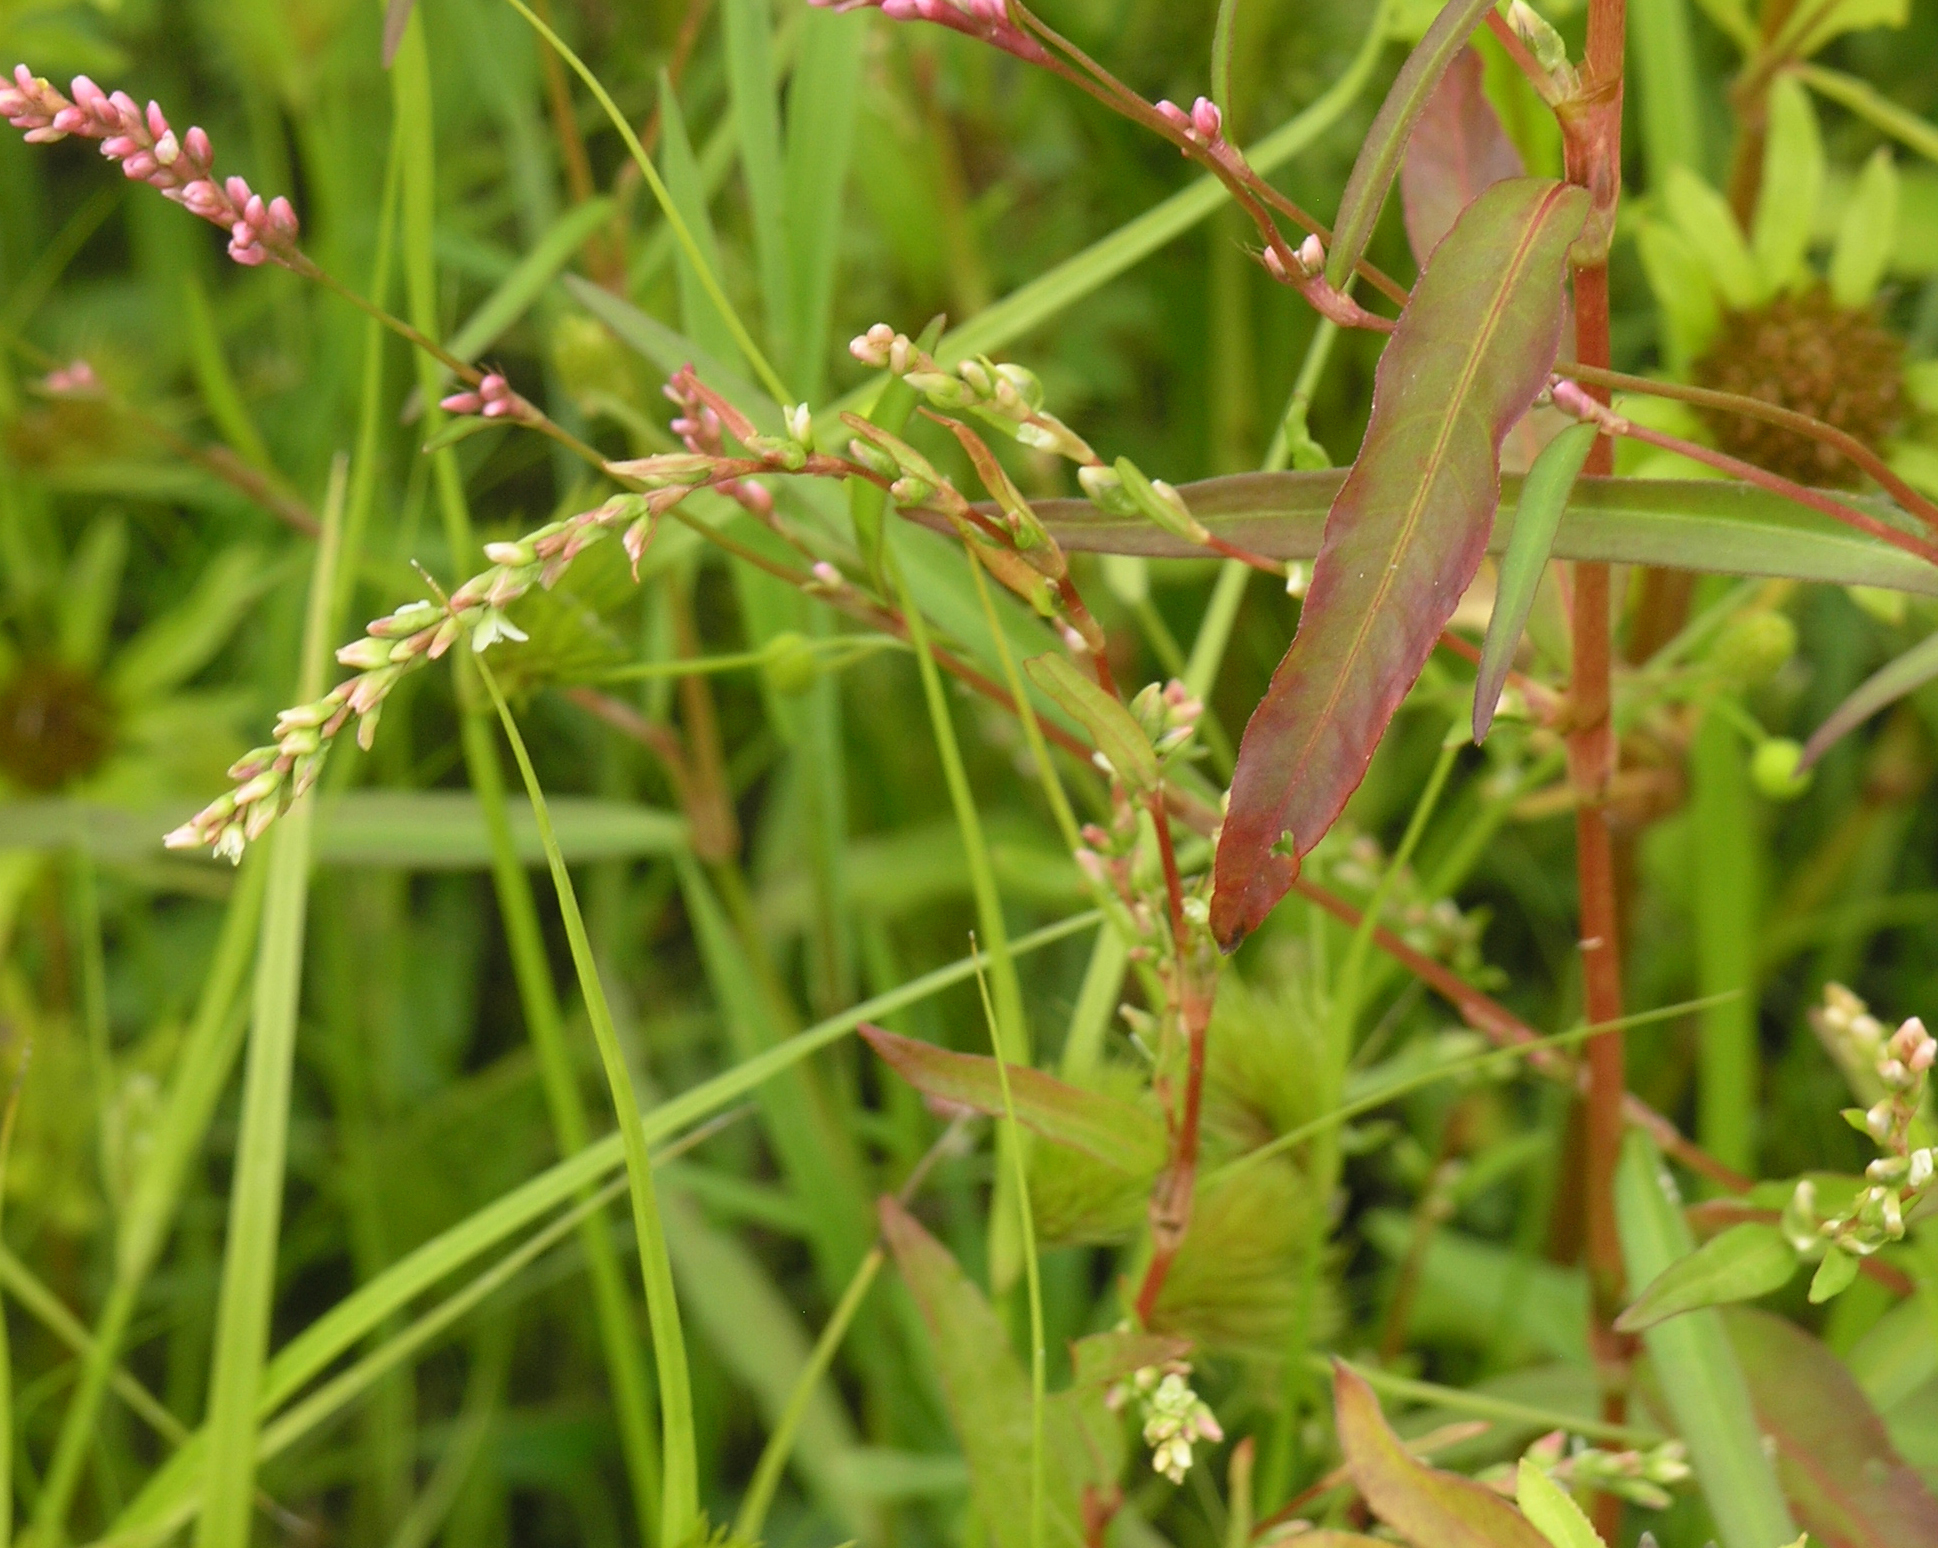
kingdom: Plantae
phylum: Tracheophyta
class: Magnoliopsida
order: Caryophyllales
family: Polygonaceae
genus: Persicaria
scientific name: Persicaria hydropiper
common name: Water-pepper
